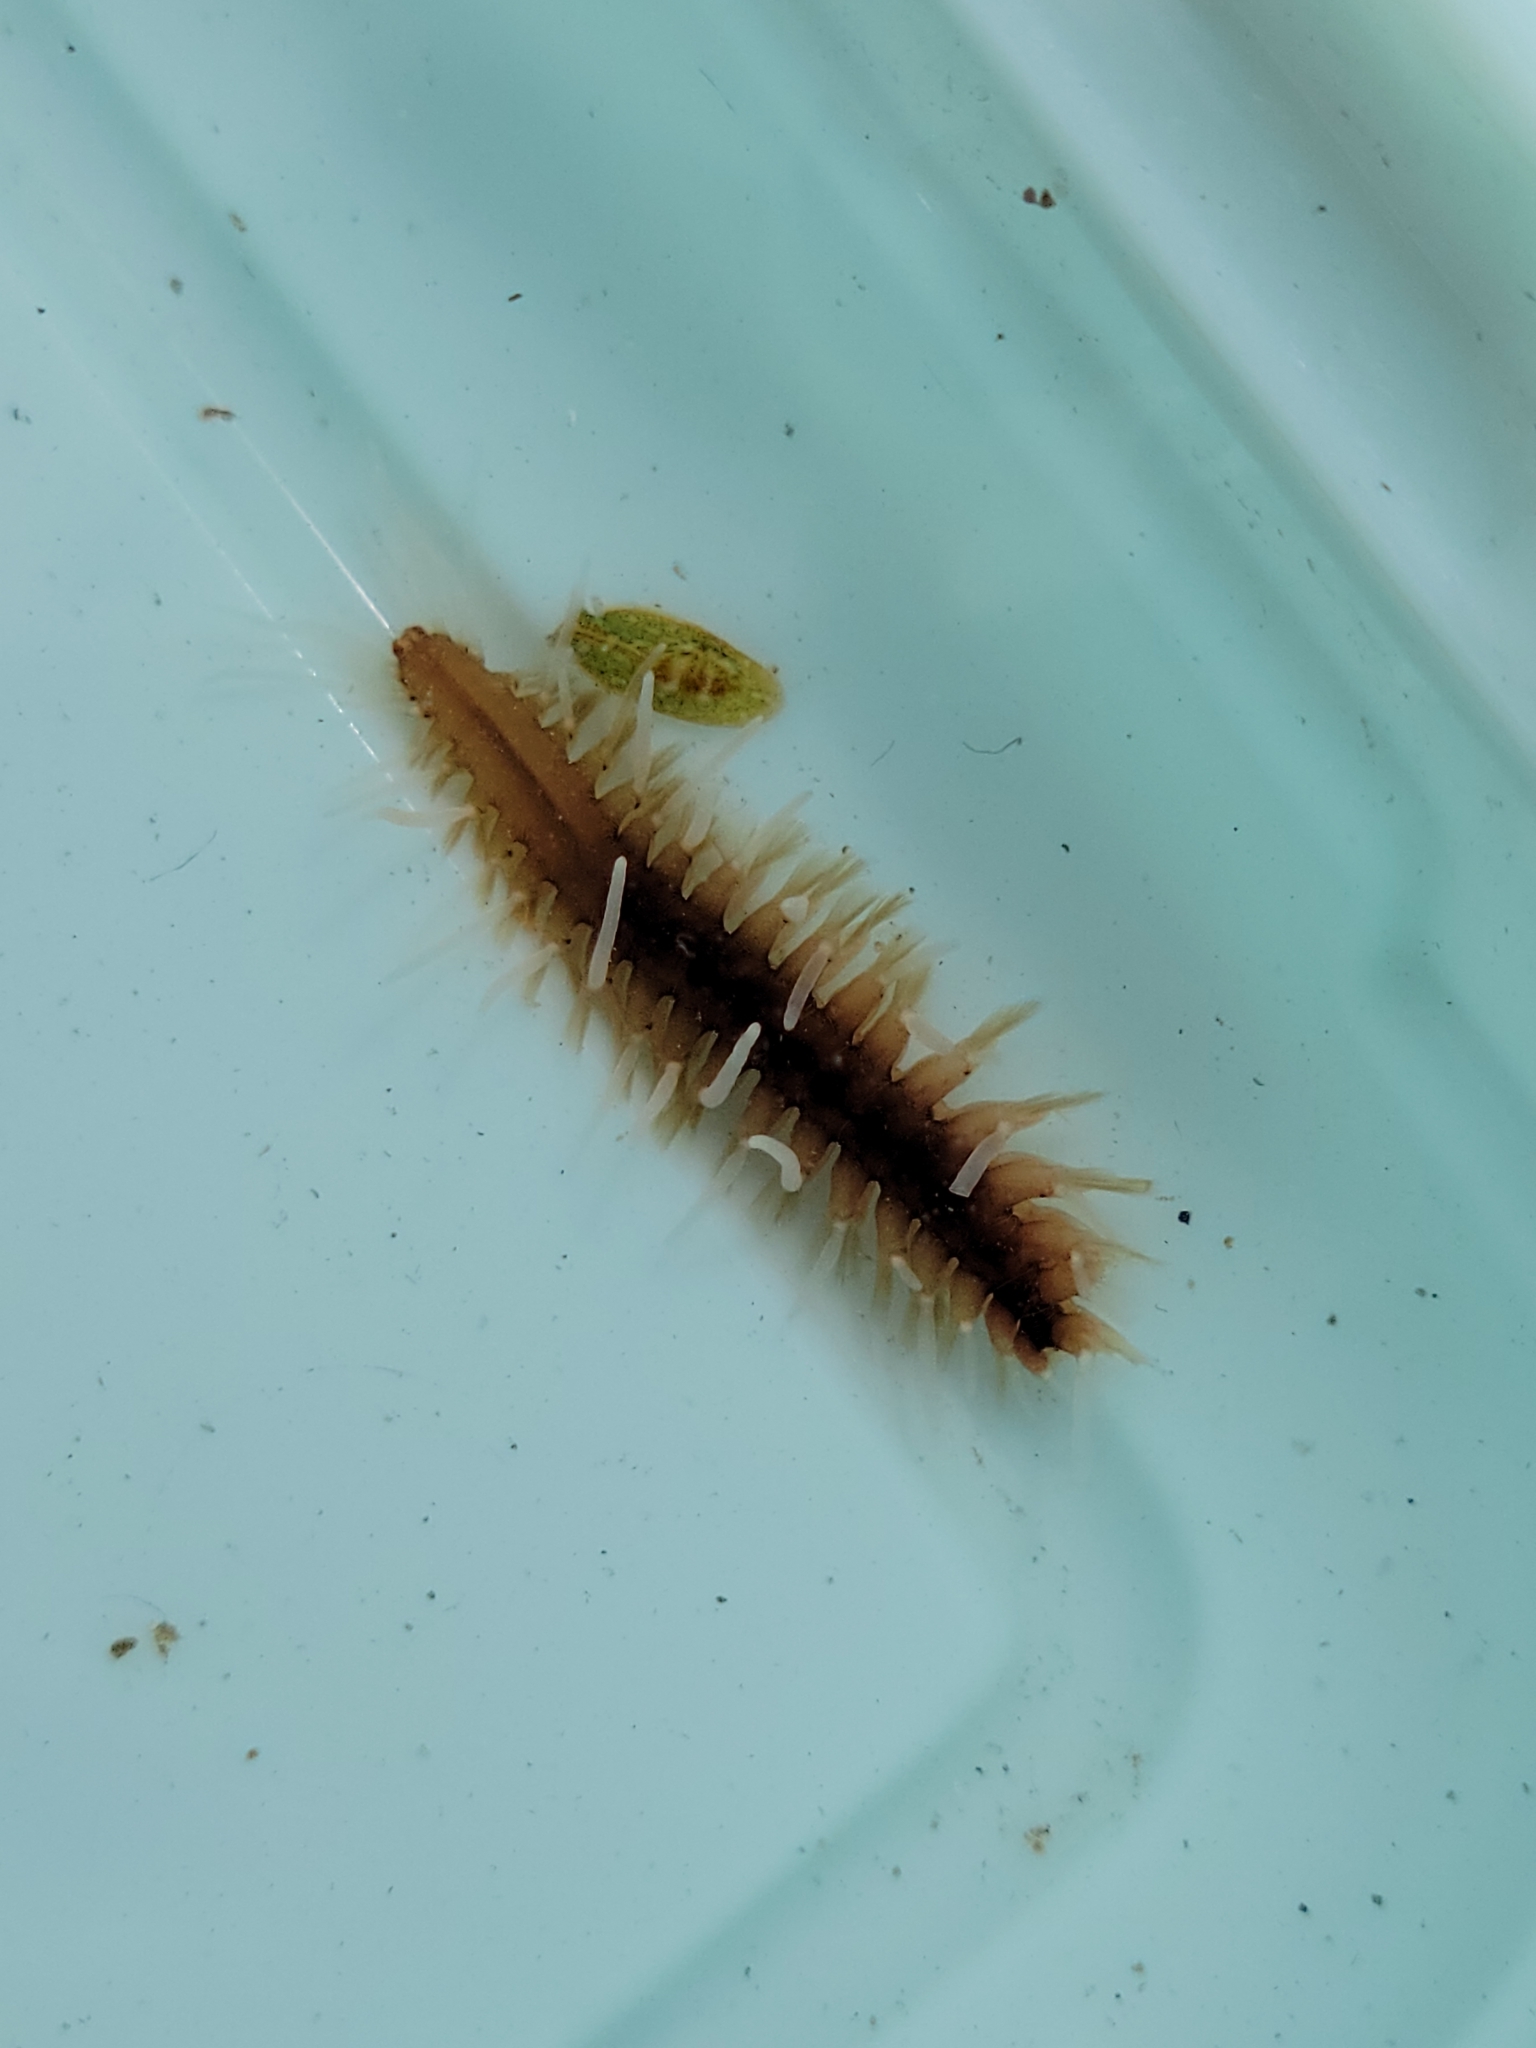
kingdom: Animalia
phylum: Annelida
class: Polychaeta
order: Phyllodocida
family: Hesionidae
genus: Amphiduros
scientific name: Amphiduros fuscescens
